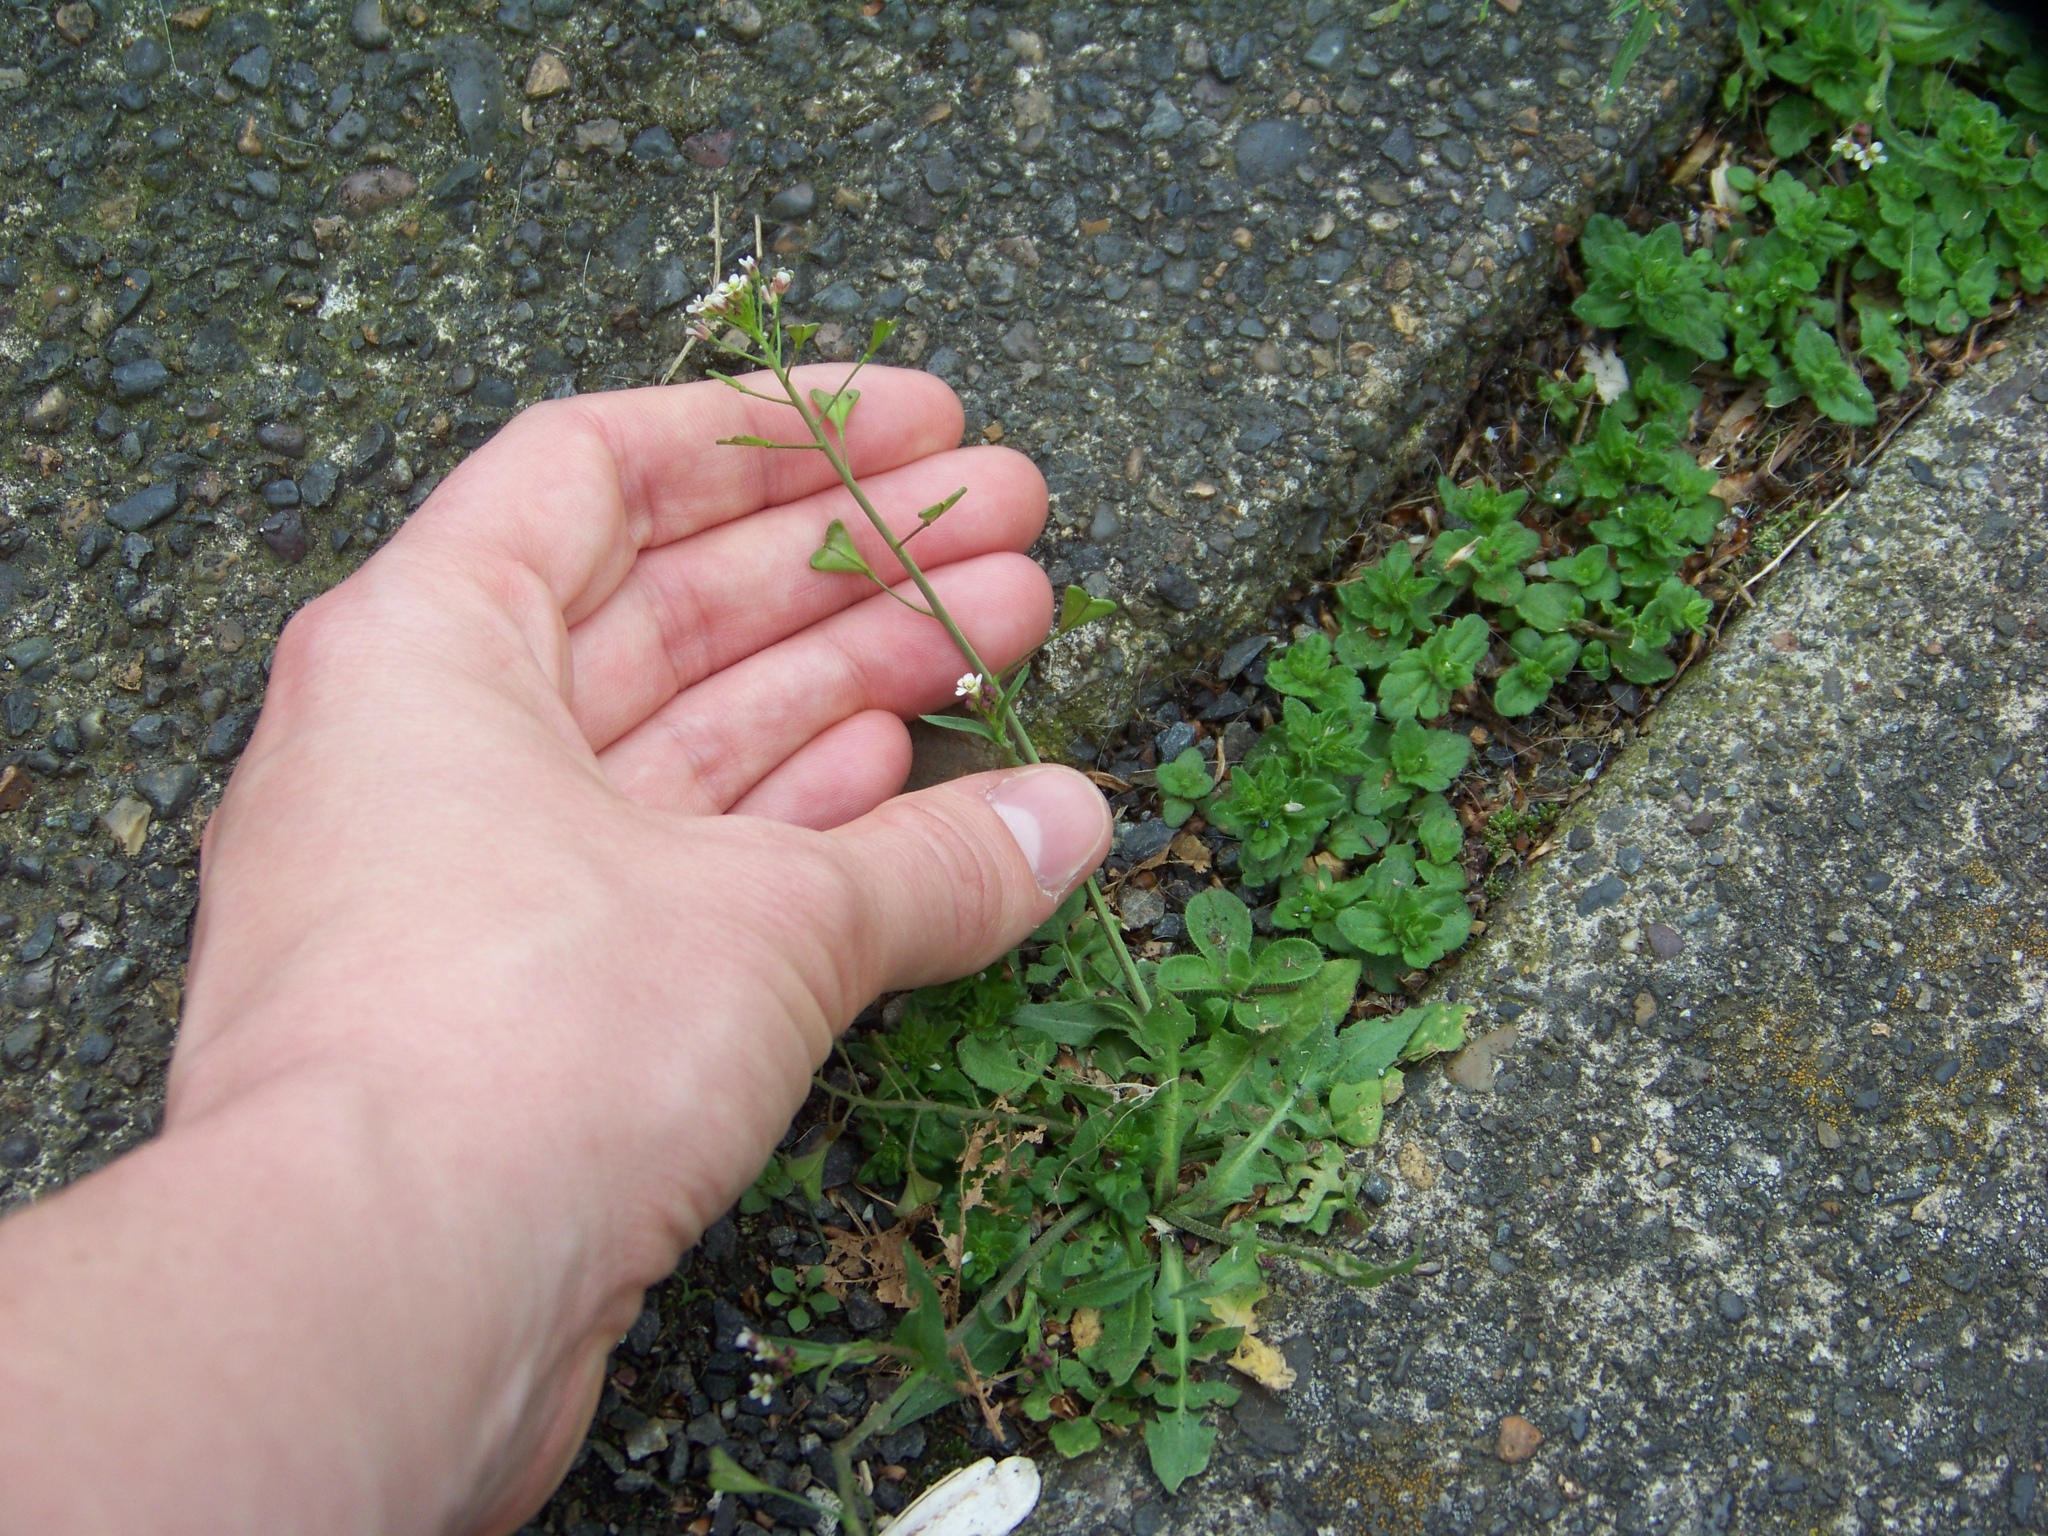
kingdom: Plantae
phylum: Tracheophyta
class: Magnoliopsida
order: Brassicales
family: Brassicaceae
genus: Capsella
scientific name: Capsella bursa-pastoris
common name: Shepherd's purse
